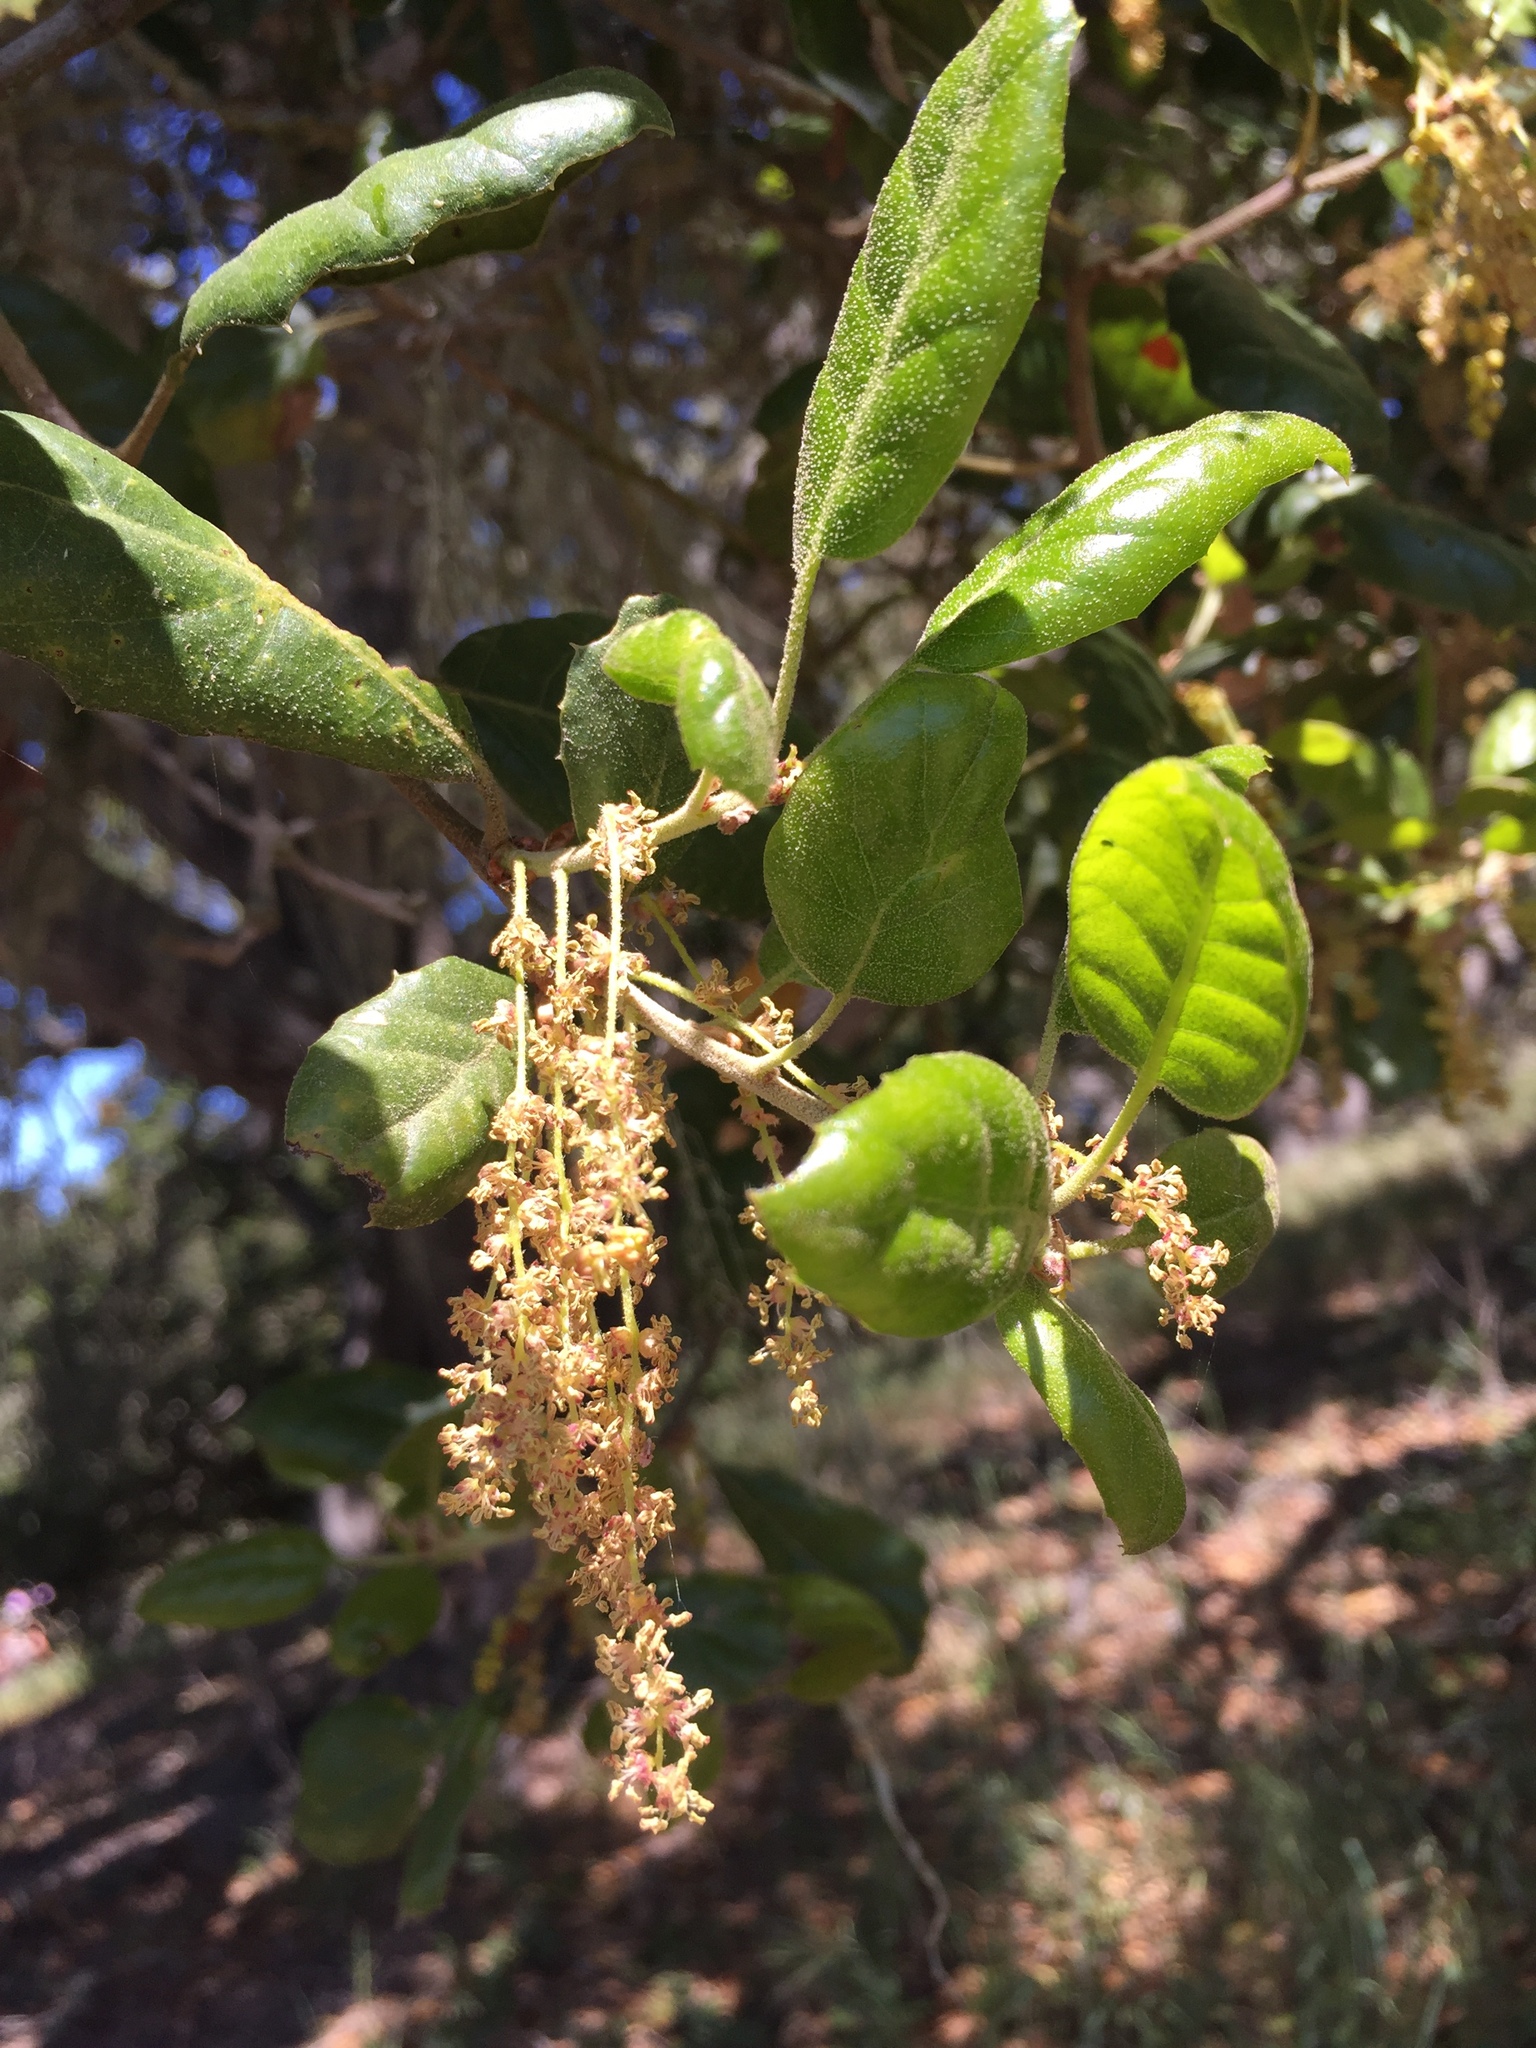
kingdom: Plantae
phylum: Tracheophyta
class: Magnoliopsida
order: Fagales
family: Fagaceae
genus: Quercus
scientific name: Quercus agrifolia
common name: California live oak
